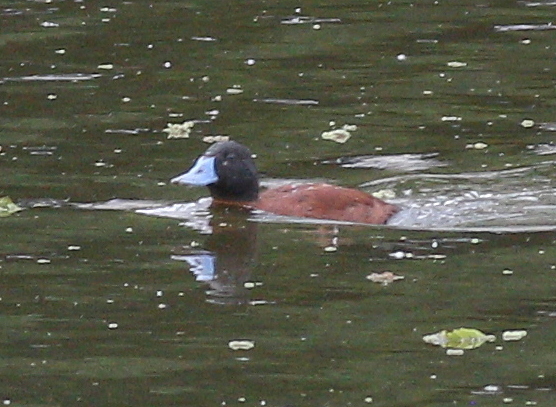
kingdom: Animalia
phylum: Chordata
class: Aves
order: Anseriformes
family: Anatidae
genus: Oxyura
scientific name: Oxyura vittata
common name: Lake duck
